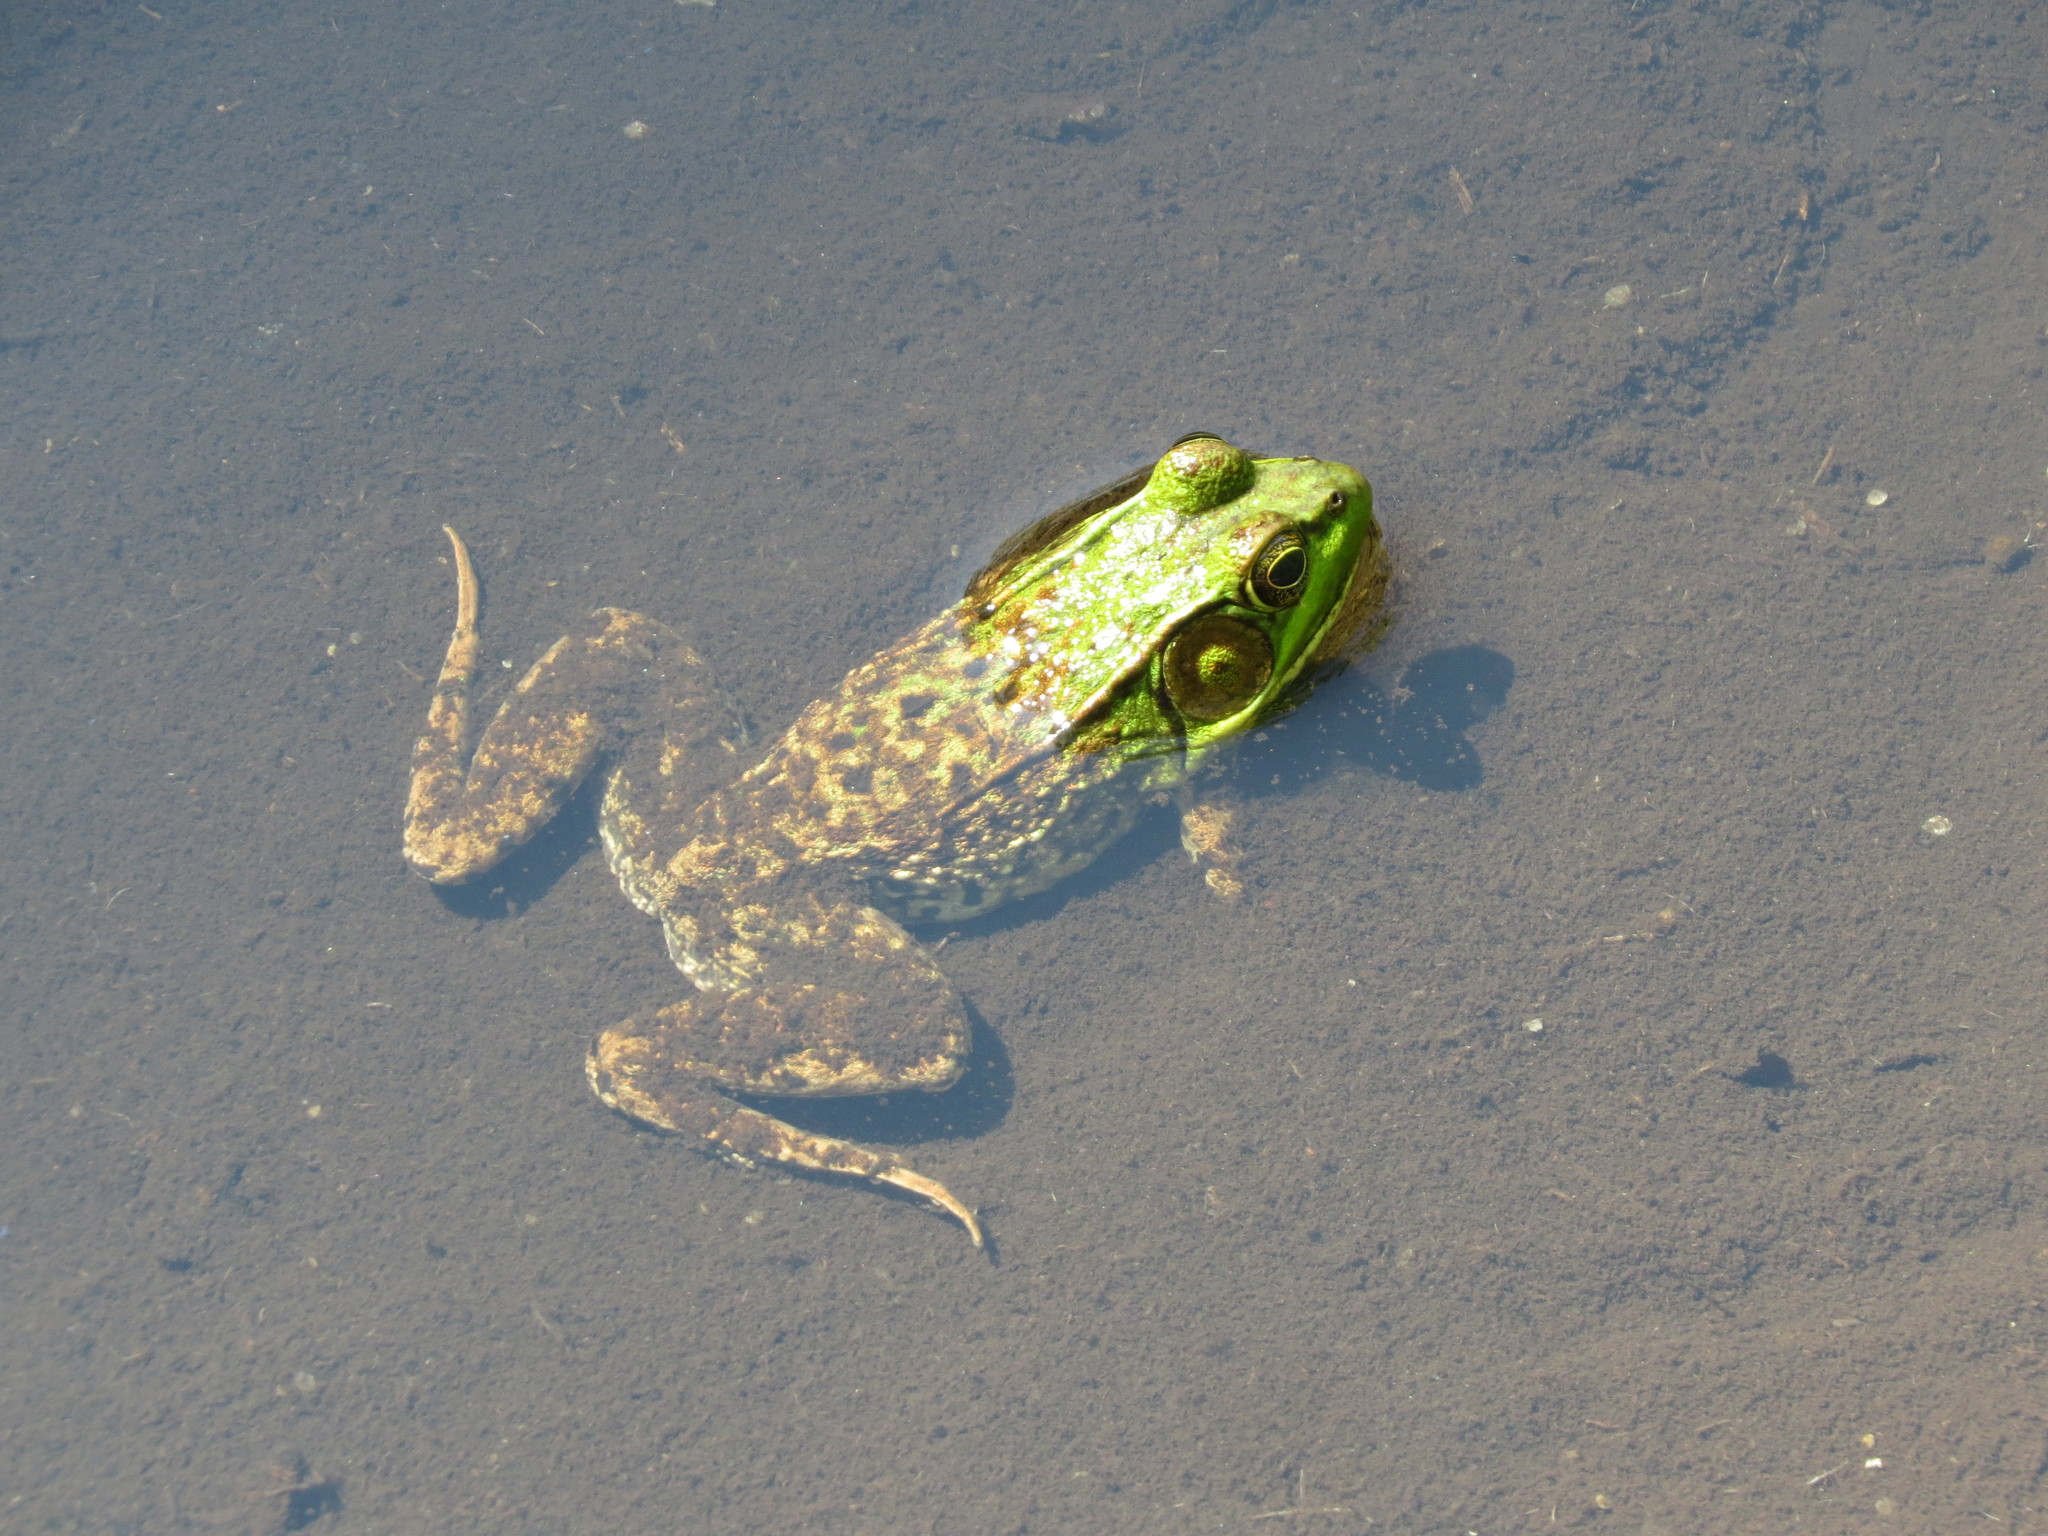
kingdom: Animalia
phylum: Chordata
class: Amphibia
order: Anura
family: Ranidae
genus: Lithobates
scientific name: Lithobates clamitans
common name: Green frog
